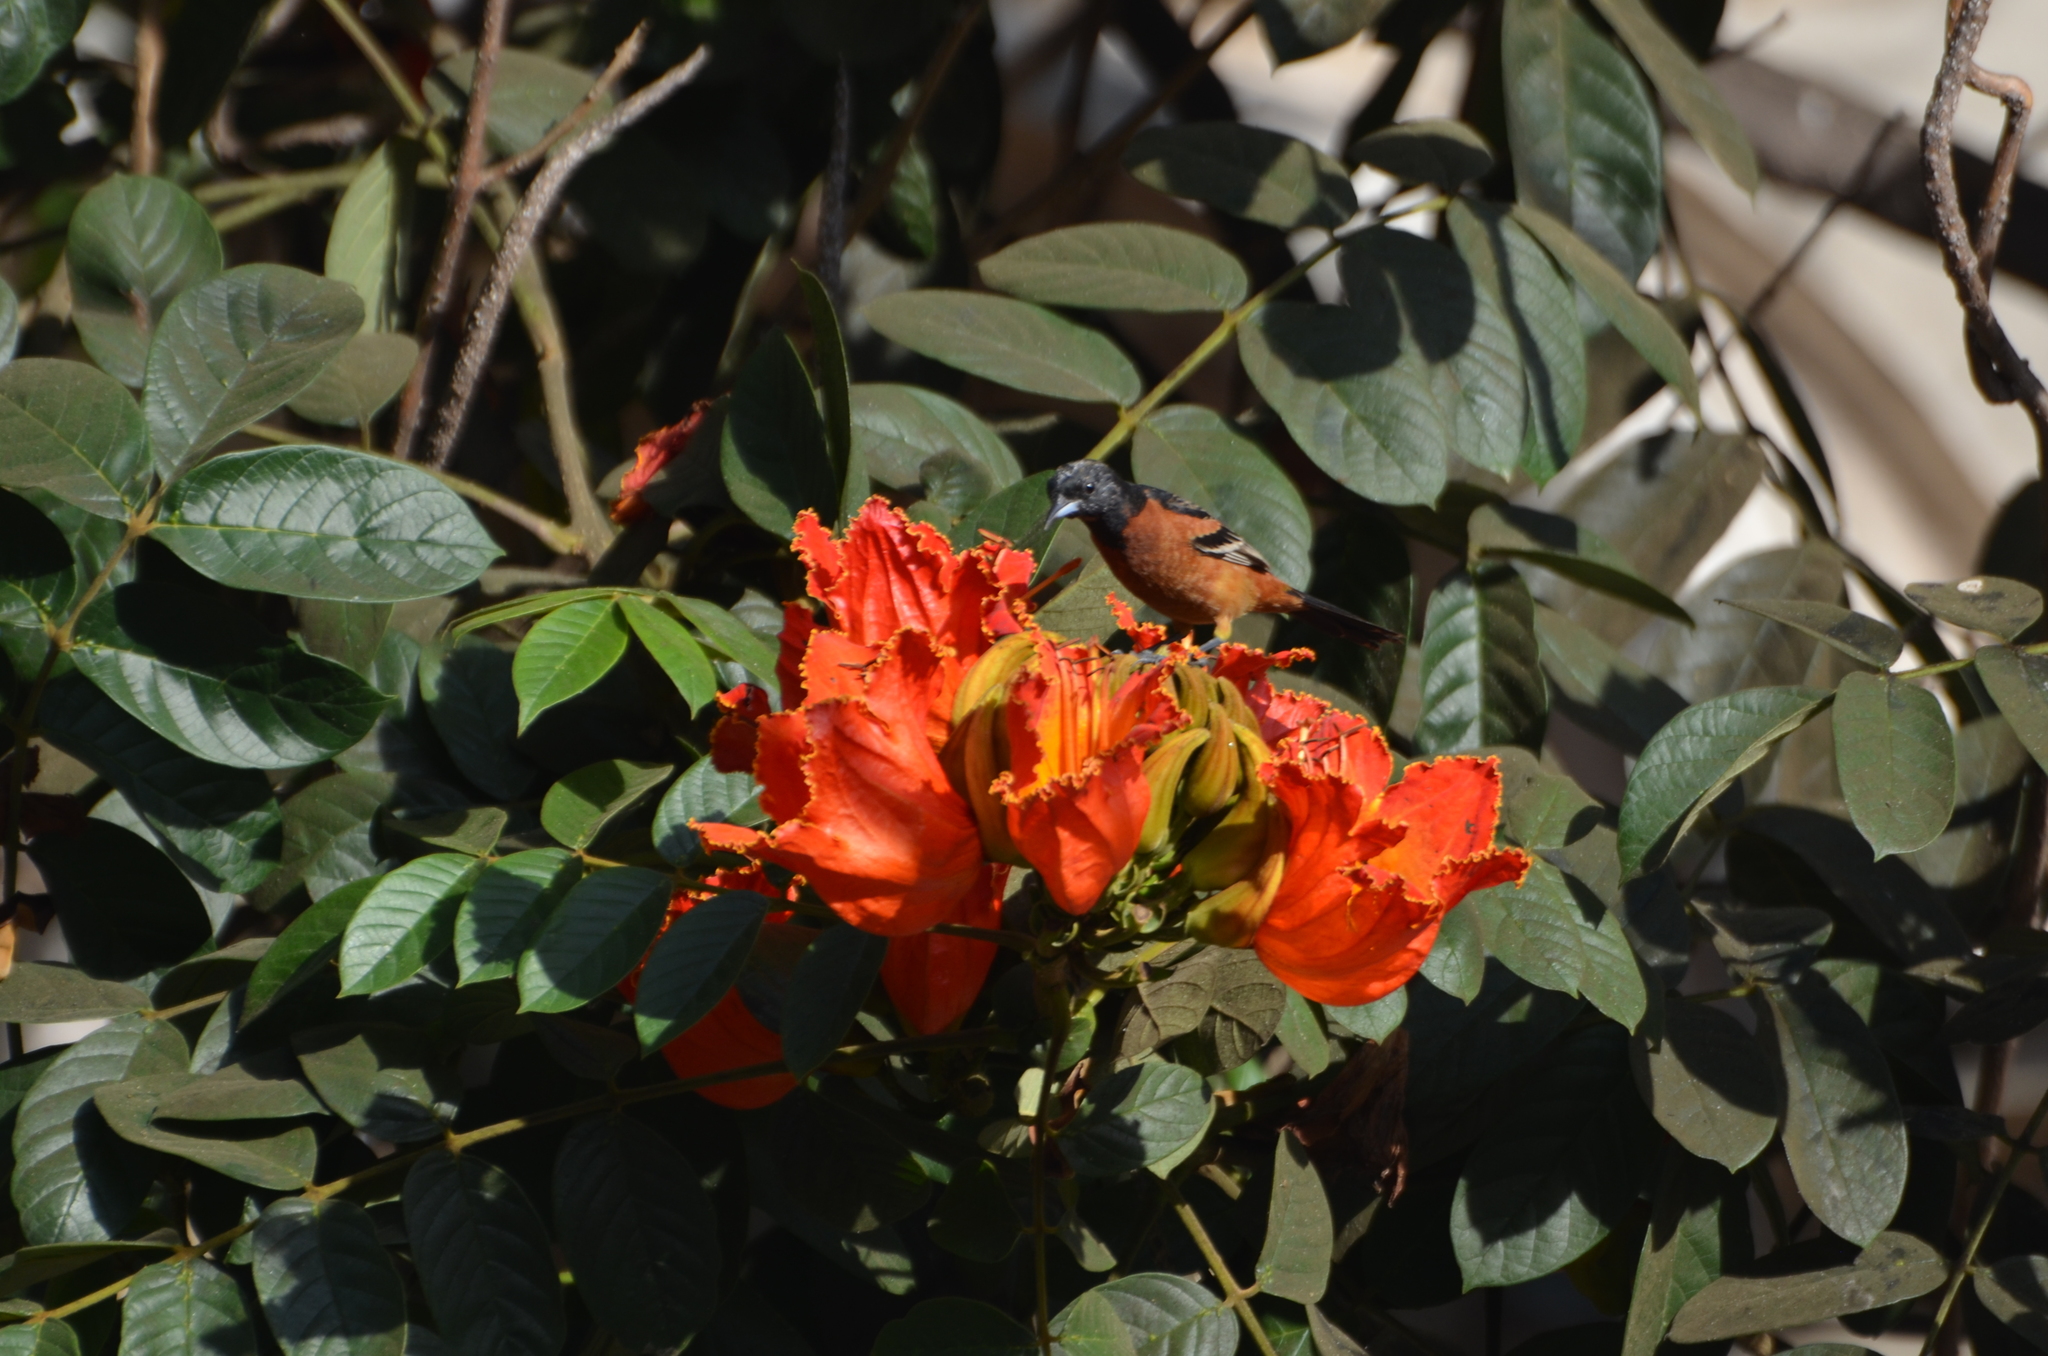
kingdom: Animalia
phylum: Chordata
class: Aves
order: Passeriformes
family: Icteridae
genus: Icterus
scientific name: Icterus spurius
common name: Orchard oriole
